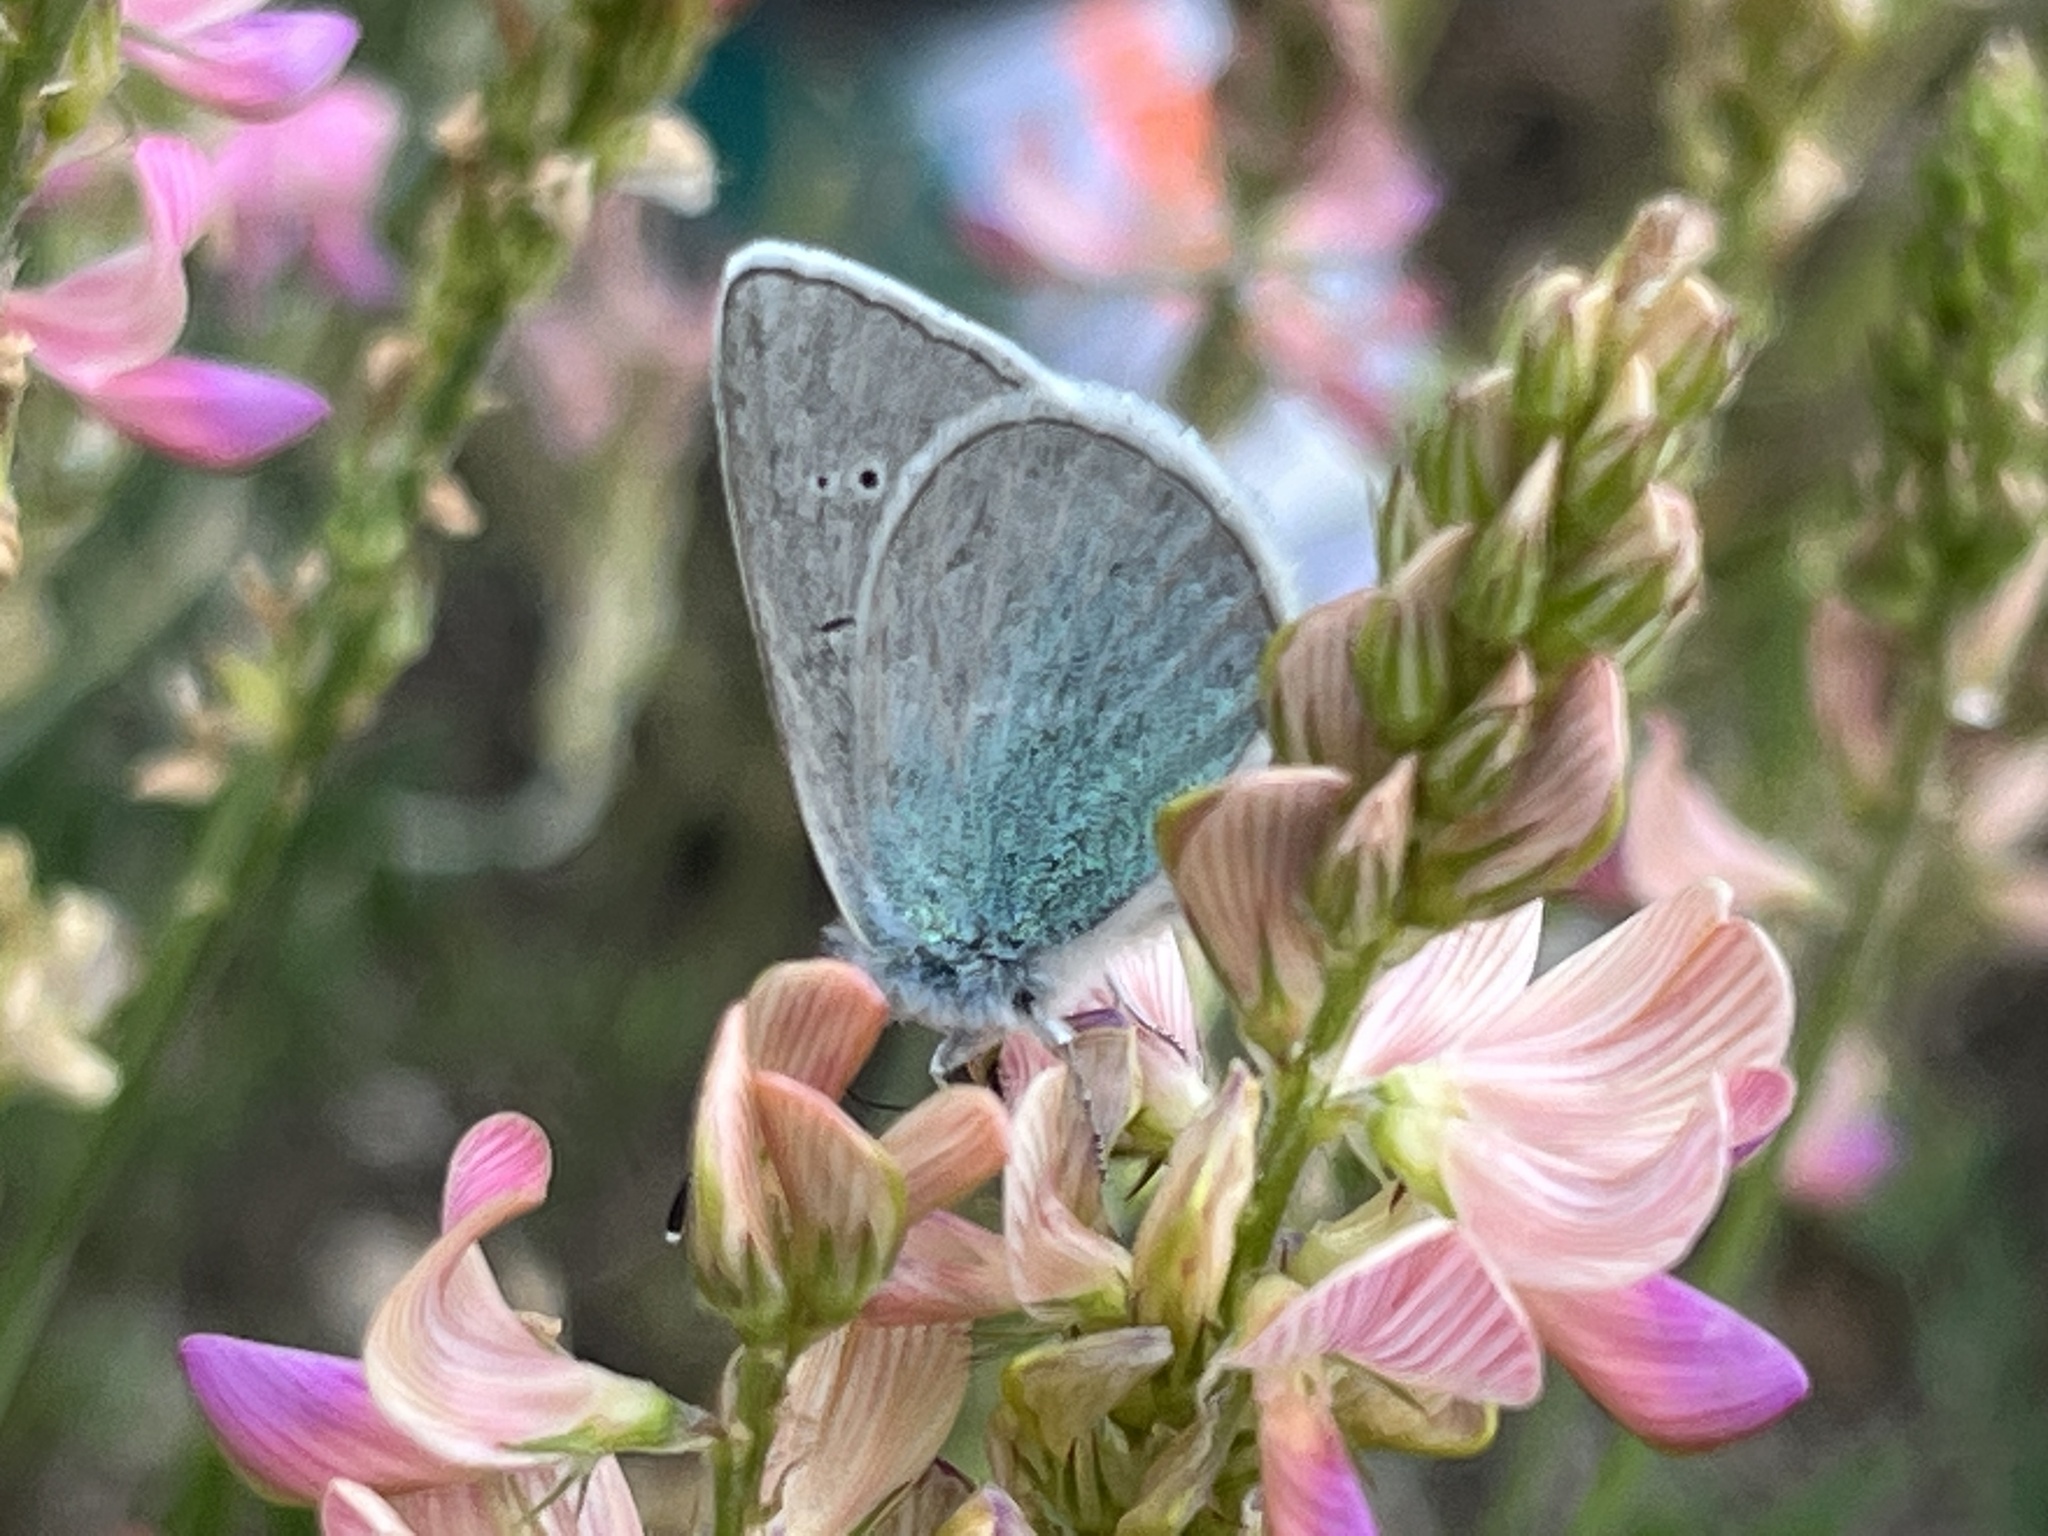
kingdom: Animalia
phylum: Arthropoda
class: Insecta
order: Lepidoptera
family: Lycaenidae
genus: Glaucopsyche
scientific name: Glaucopsyche alexis
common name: Green-underside blue
